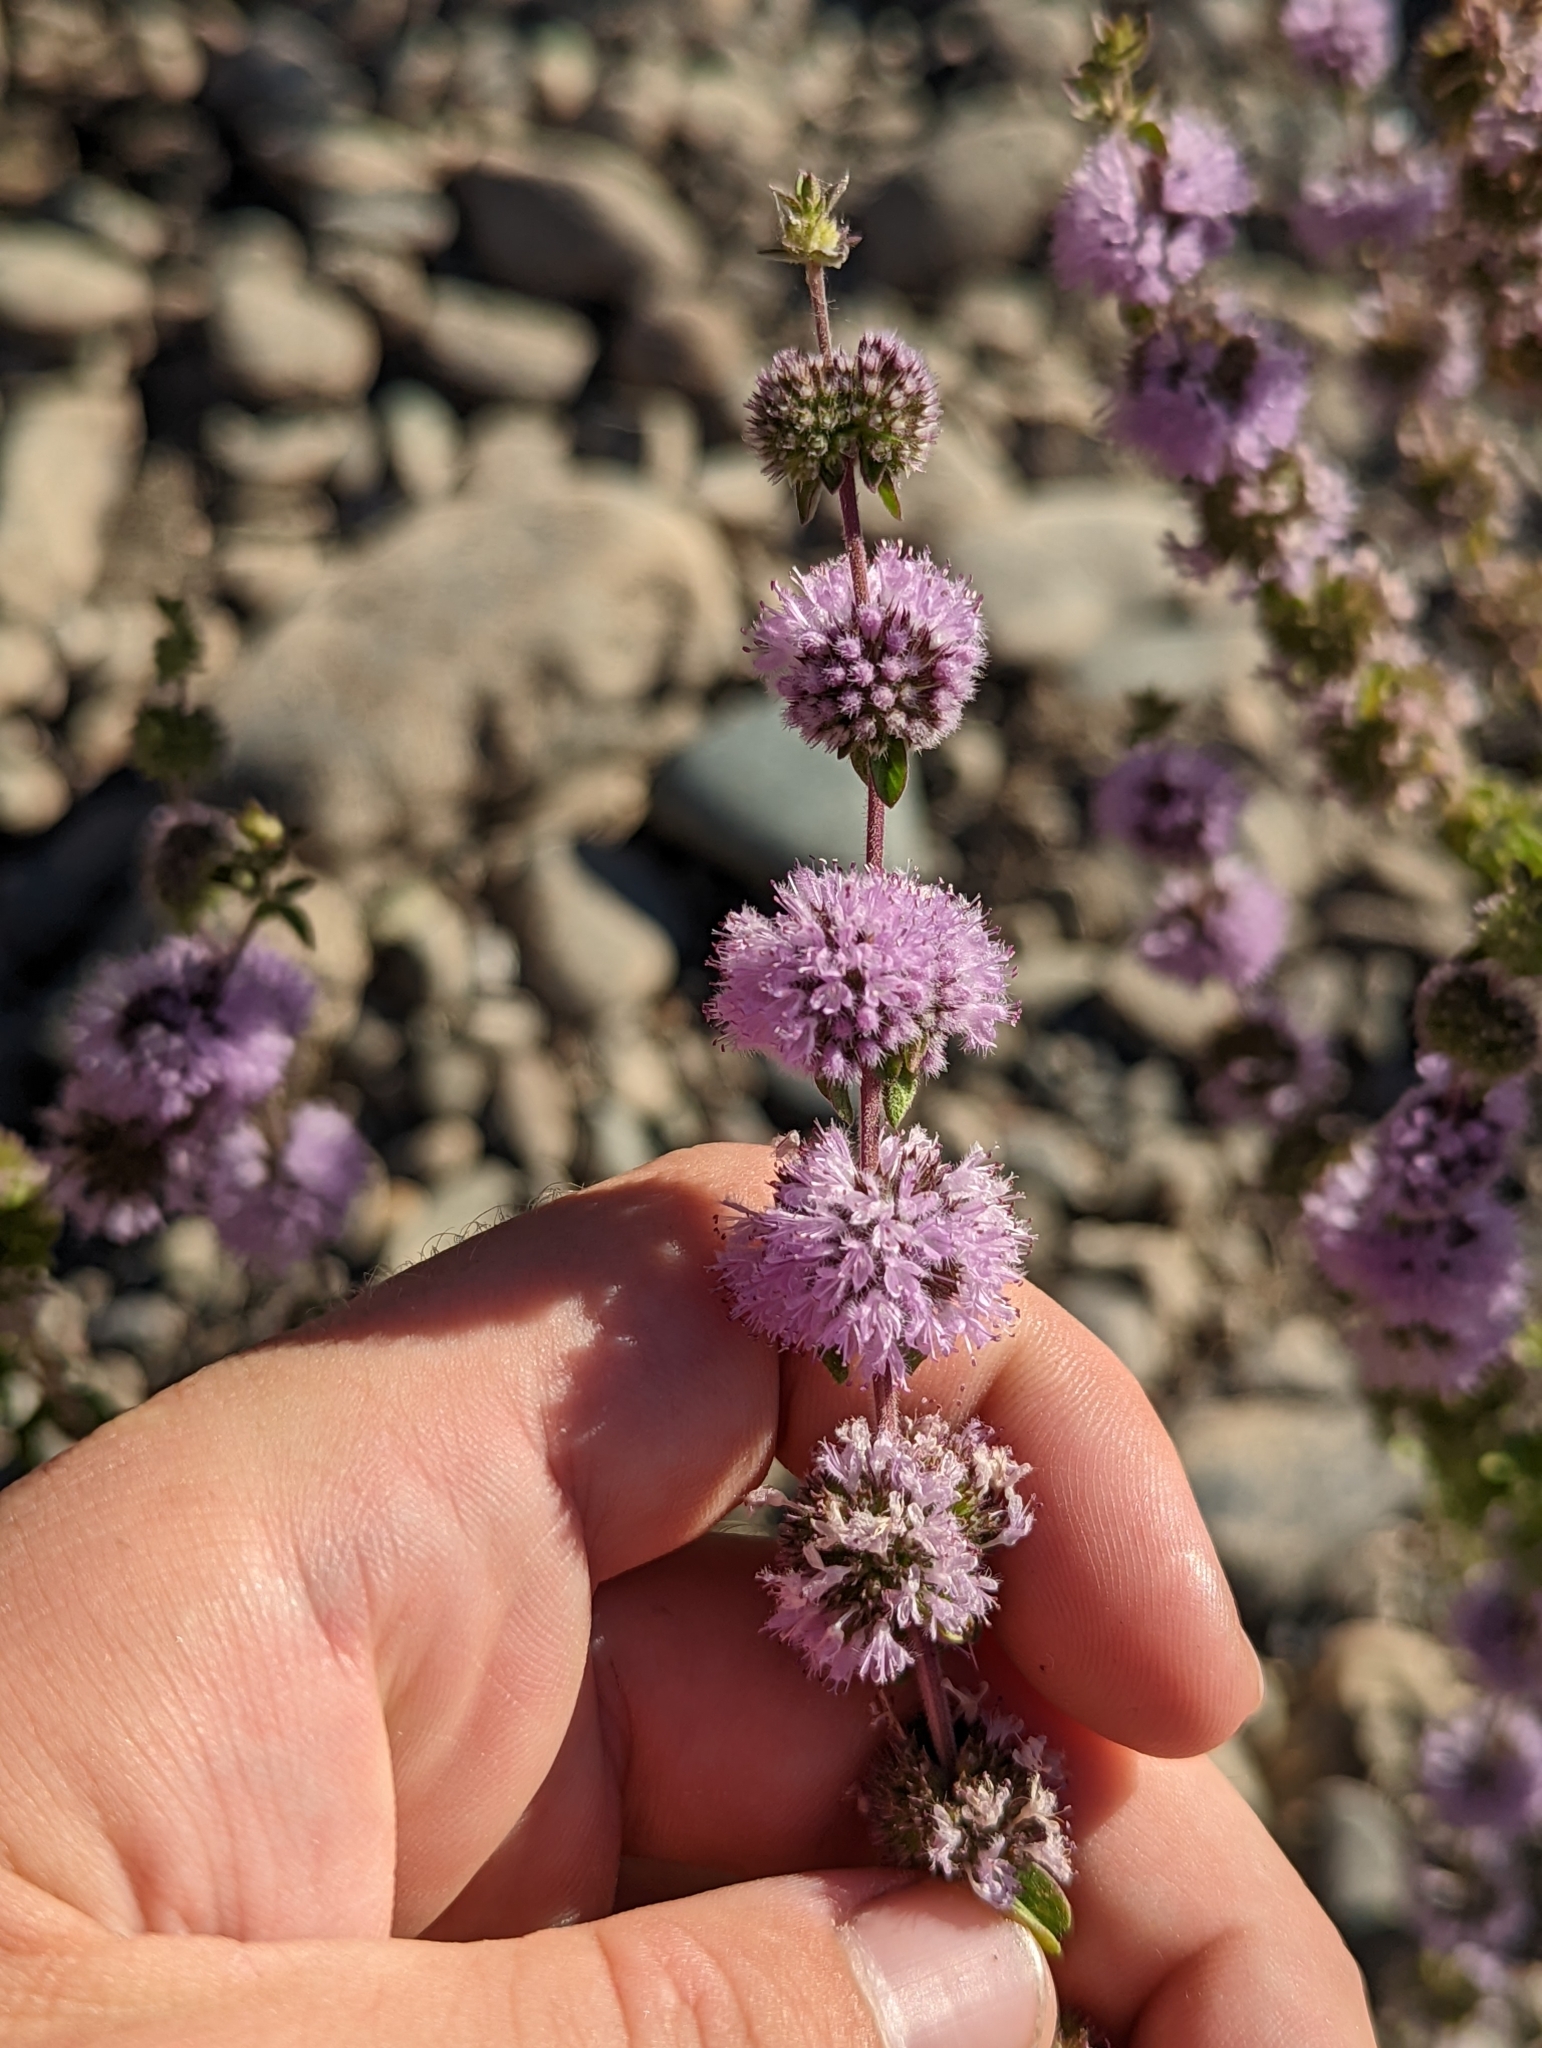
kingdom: Plantae
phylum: Tracheophyta
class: Magnoliopsida
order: Lamiales
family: Lamiaceae
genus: Mentha
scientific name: Mentha pulegium
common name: Pennyroyal
